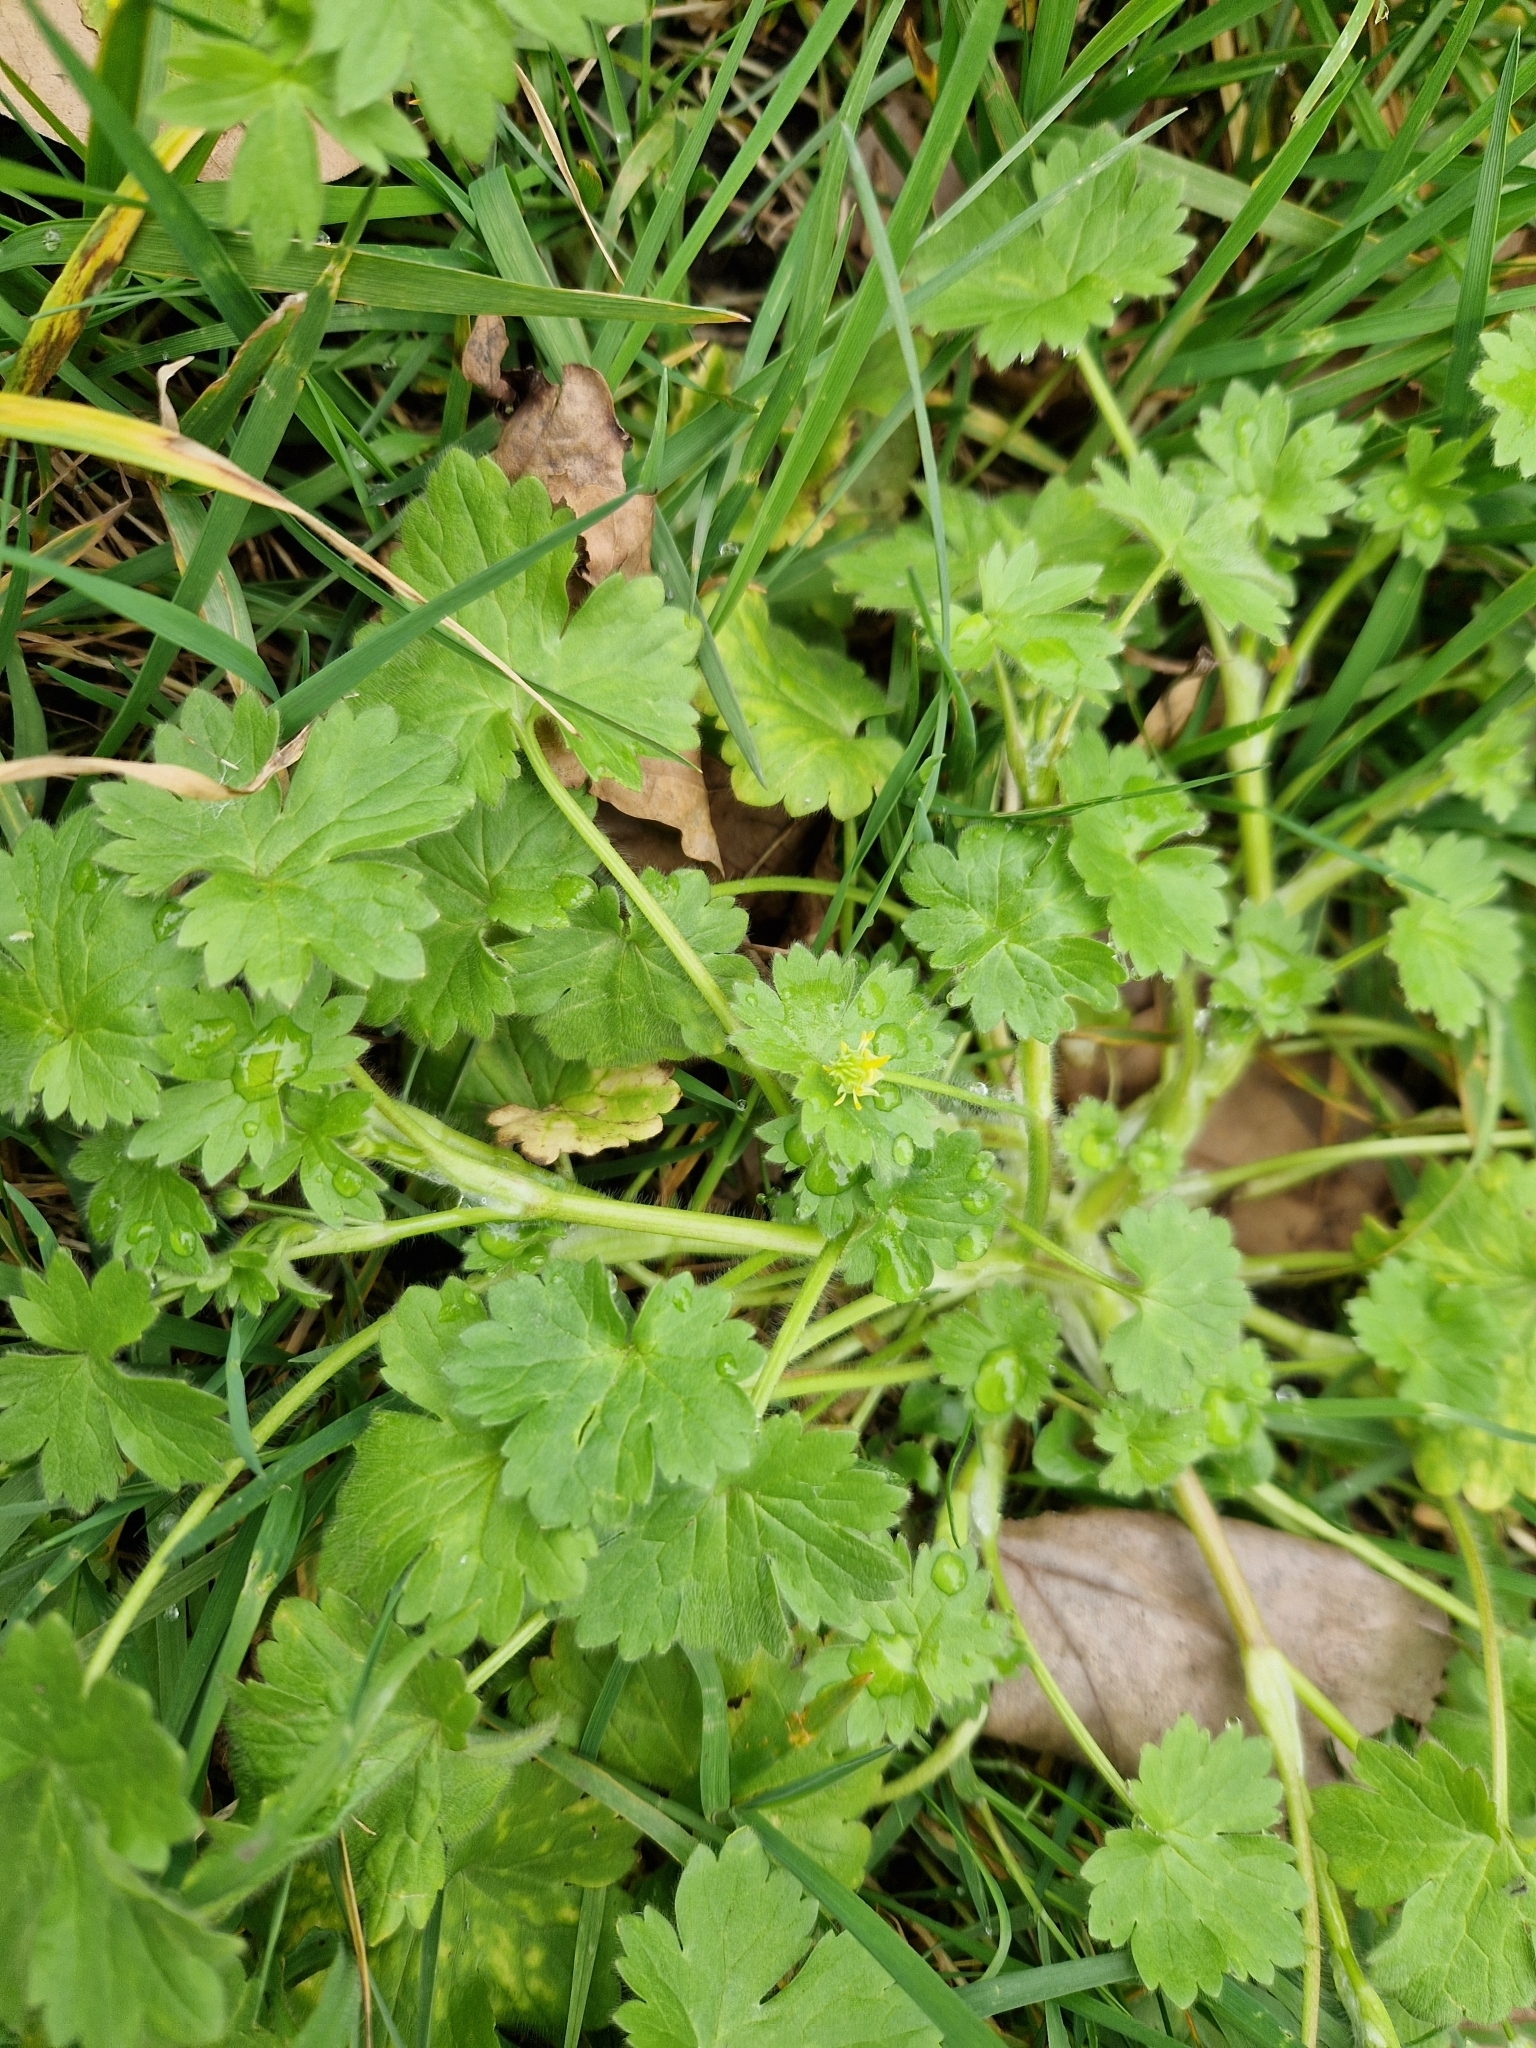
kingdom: Plantae
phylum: Tracheophyta
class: Magnoliopsida
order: Ranunculales
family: Ranunculaceae
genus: Ranunculus
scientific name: Ranunculus parviflorus
